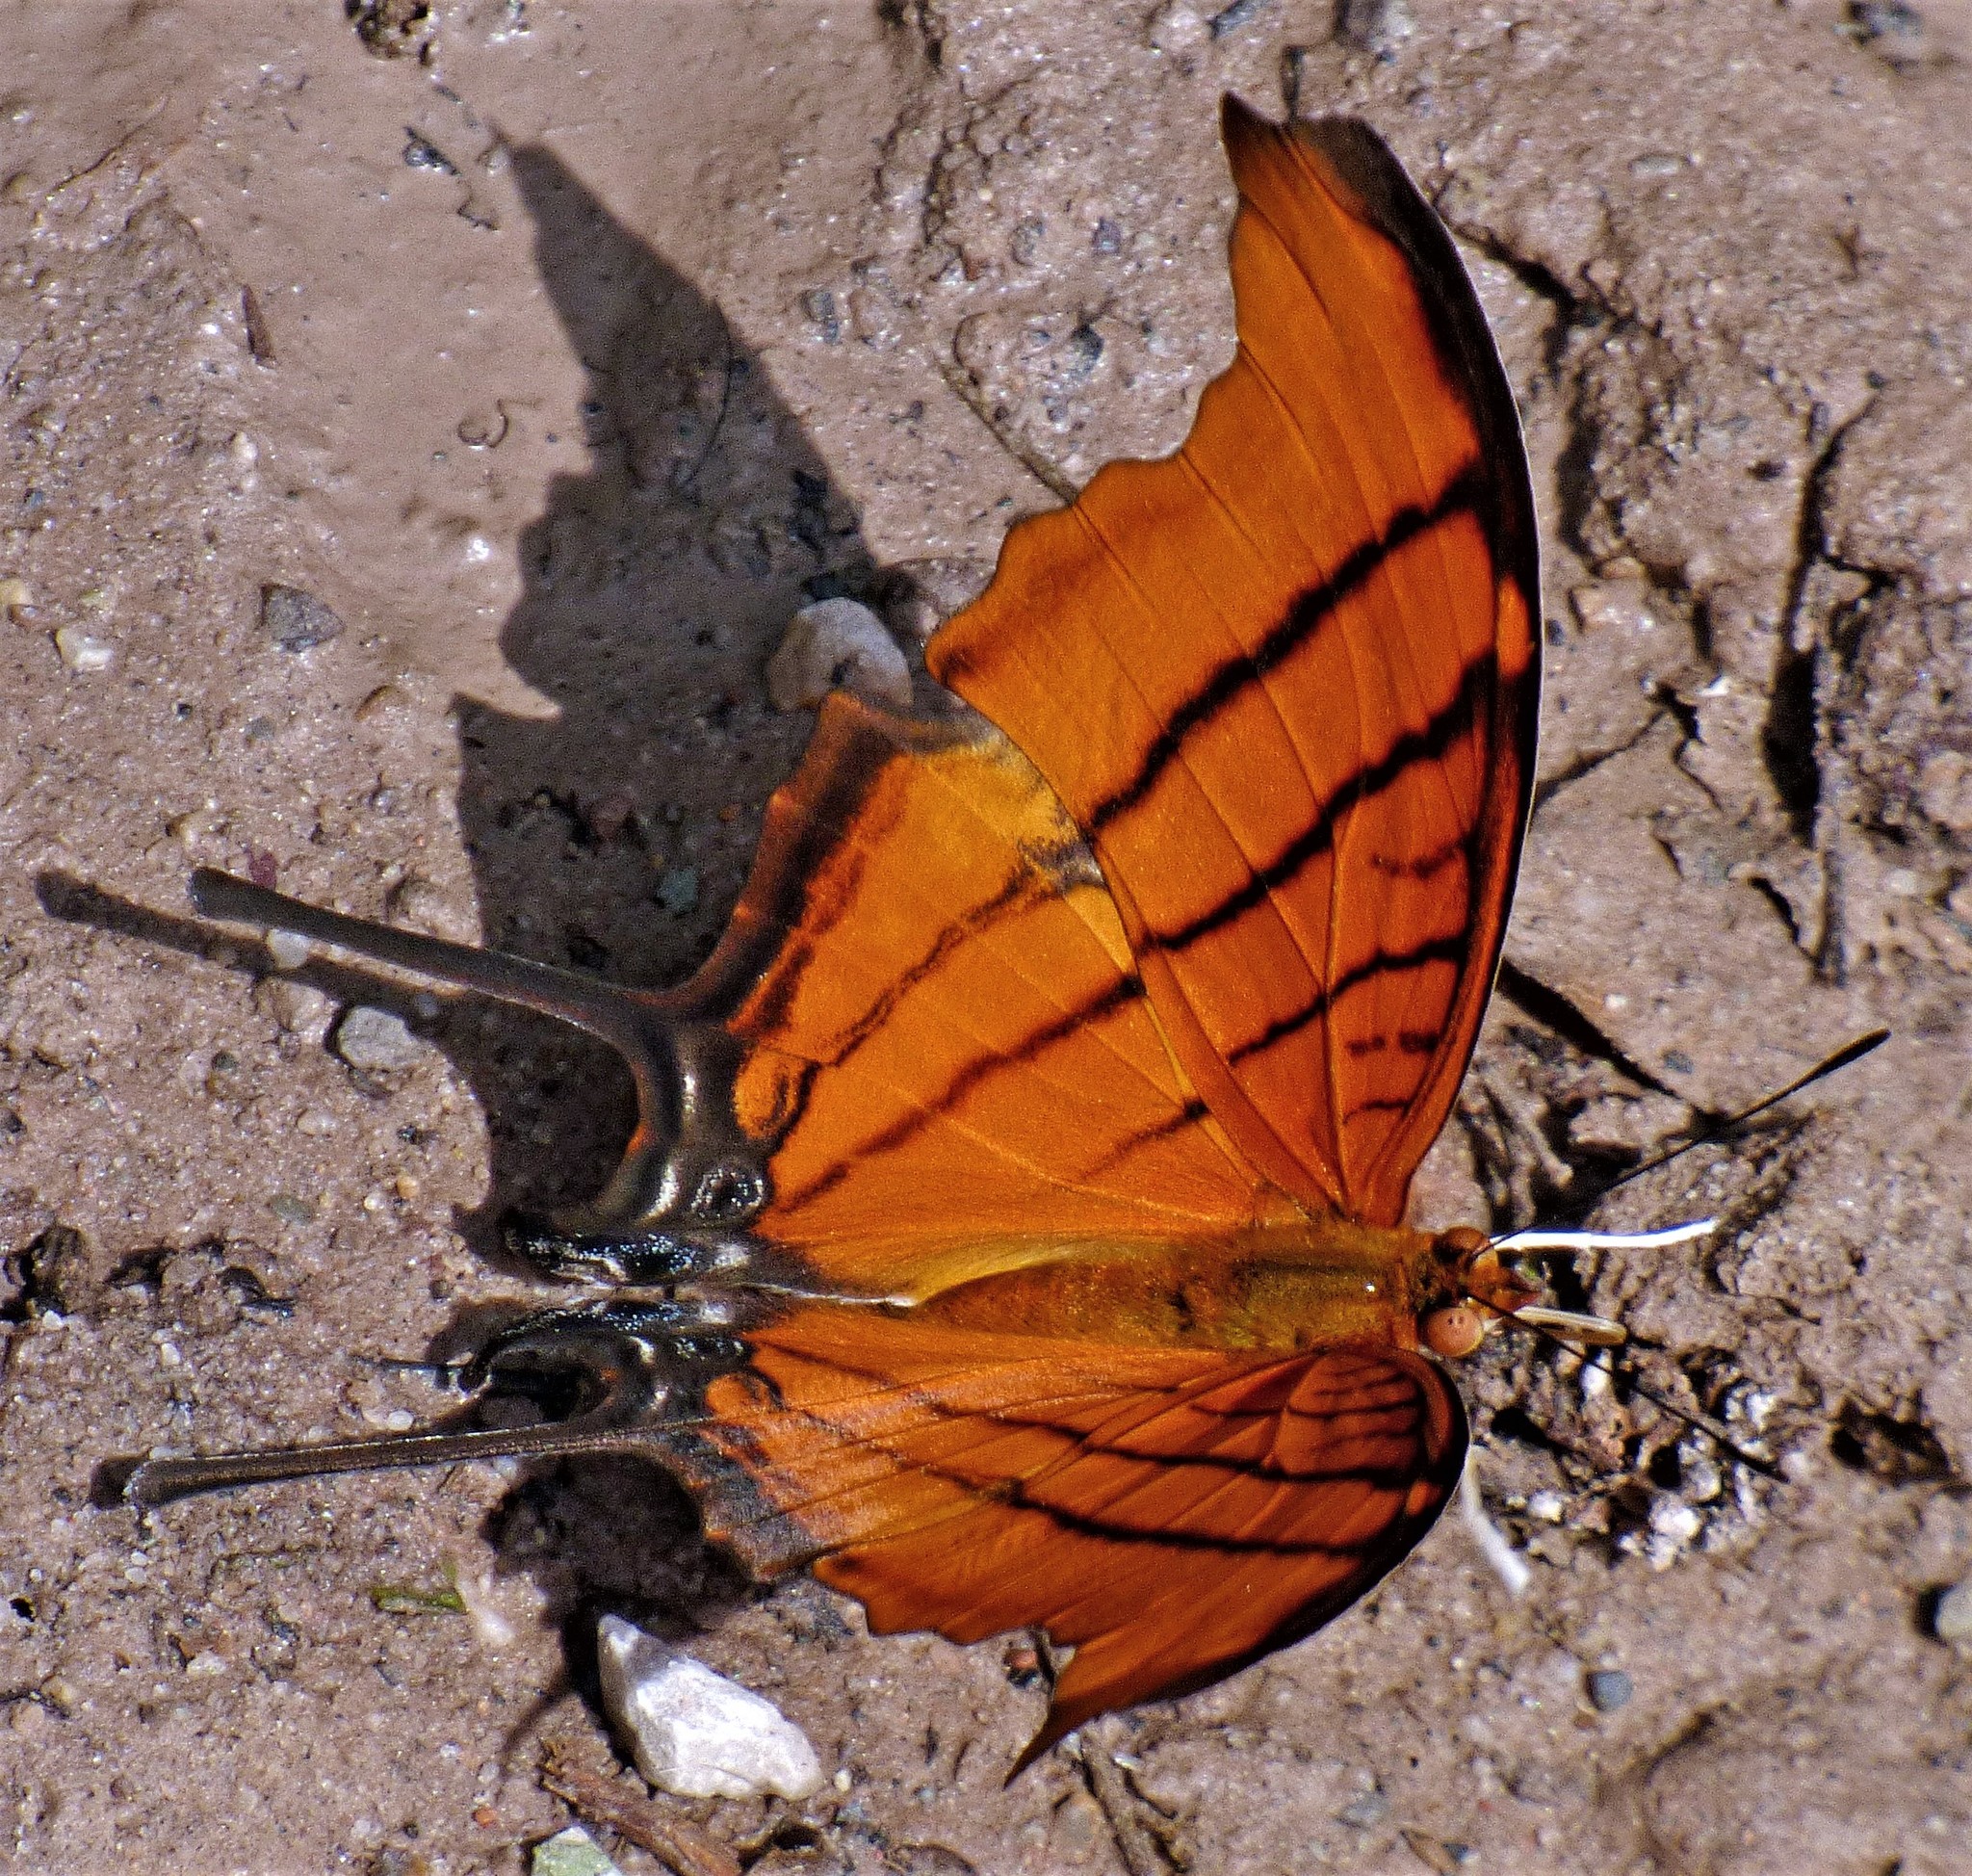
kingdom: Animalia
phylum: Arthropoda
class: Insecta
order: Lepidoptera
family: Nymphalidae
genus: Marpesia
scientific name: Marpesia petreus
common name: Red dagger wing
